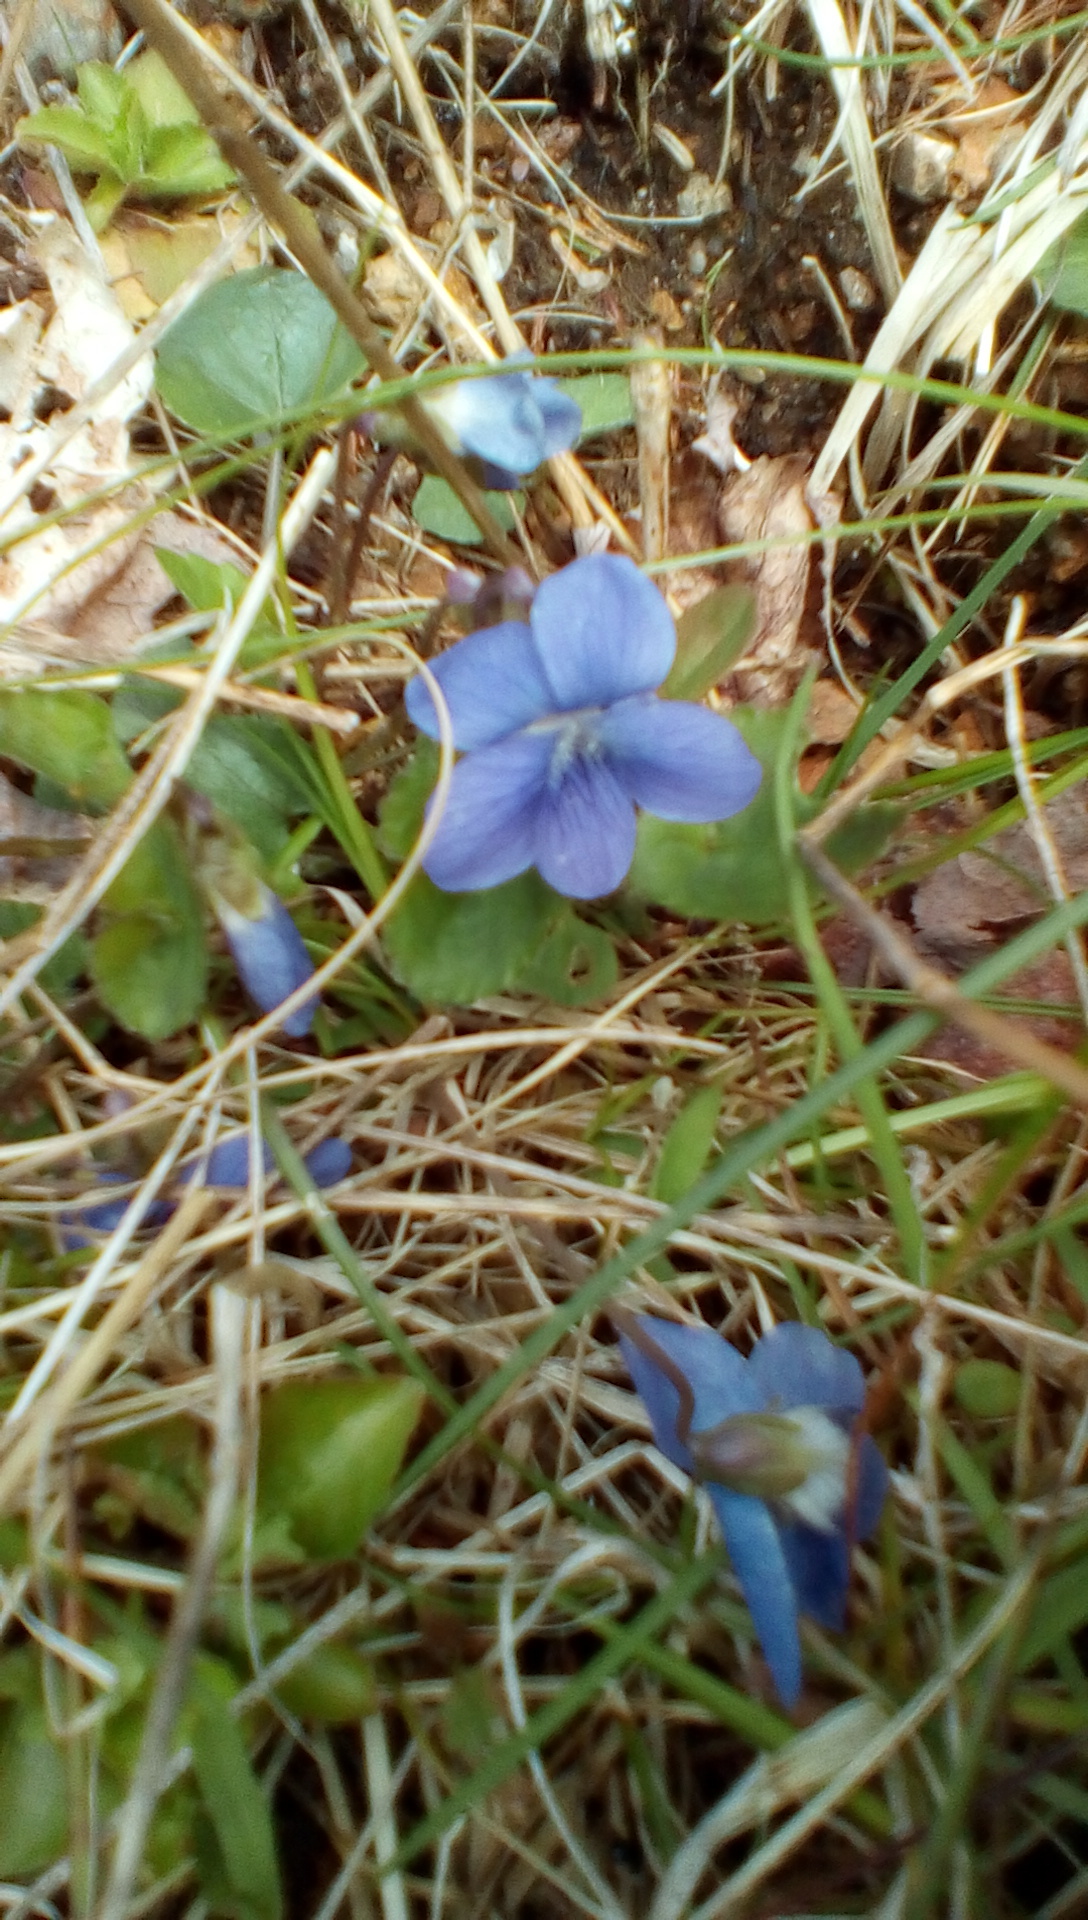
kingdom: Plantae
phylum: Tracheophyta
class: Magnoliopsida
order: Malpighiales
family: Violaceae
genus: Viola
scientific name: Viola sororia
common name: Dooryard violet
